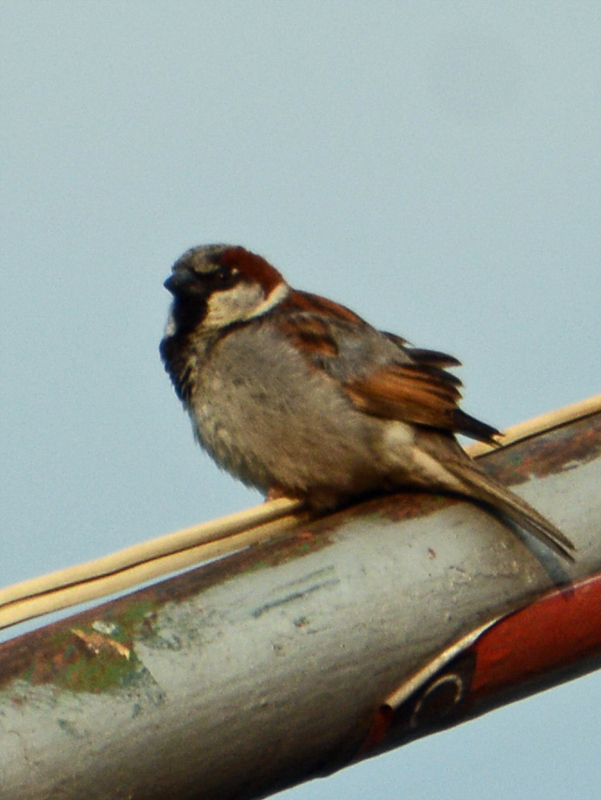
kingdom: Animalia
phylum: Chordata
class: Aves
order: Passeriformes
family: Passeridae
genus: Passer
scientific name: Passer domesticus
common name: House sparrow
